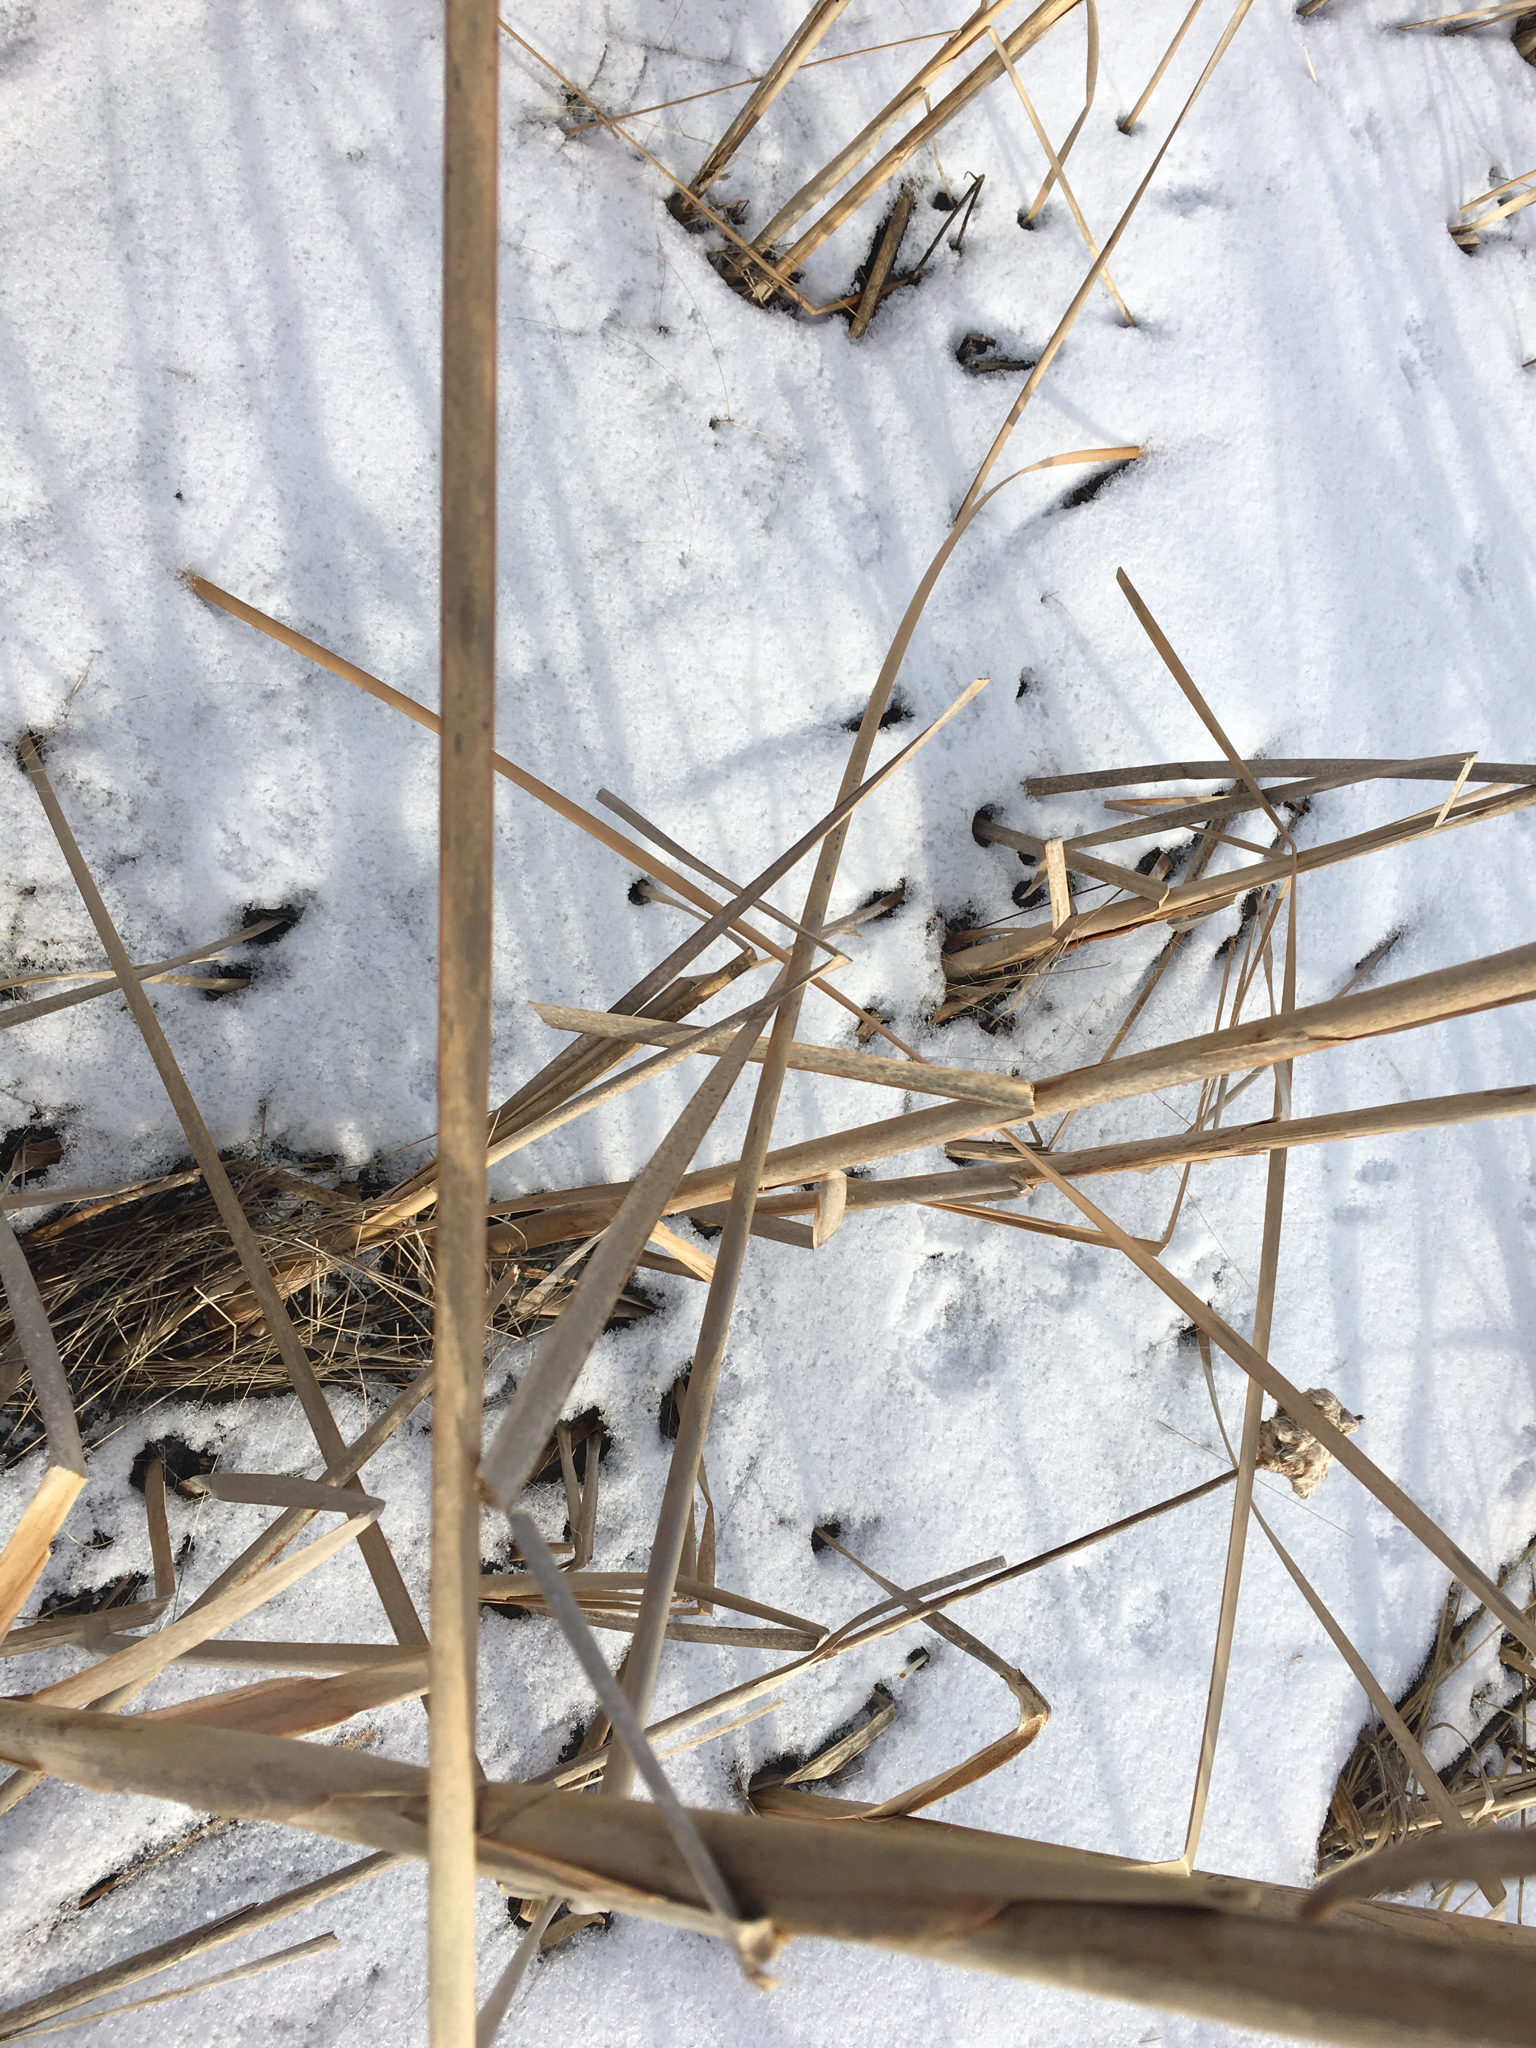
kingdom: Plantae
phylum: Tracheophyta
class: Liliopsida
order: Poales
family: Typhaceae
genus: Typha
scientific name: Typha angustifolia
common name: Lesser bulrush
